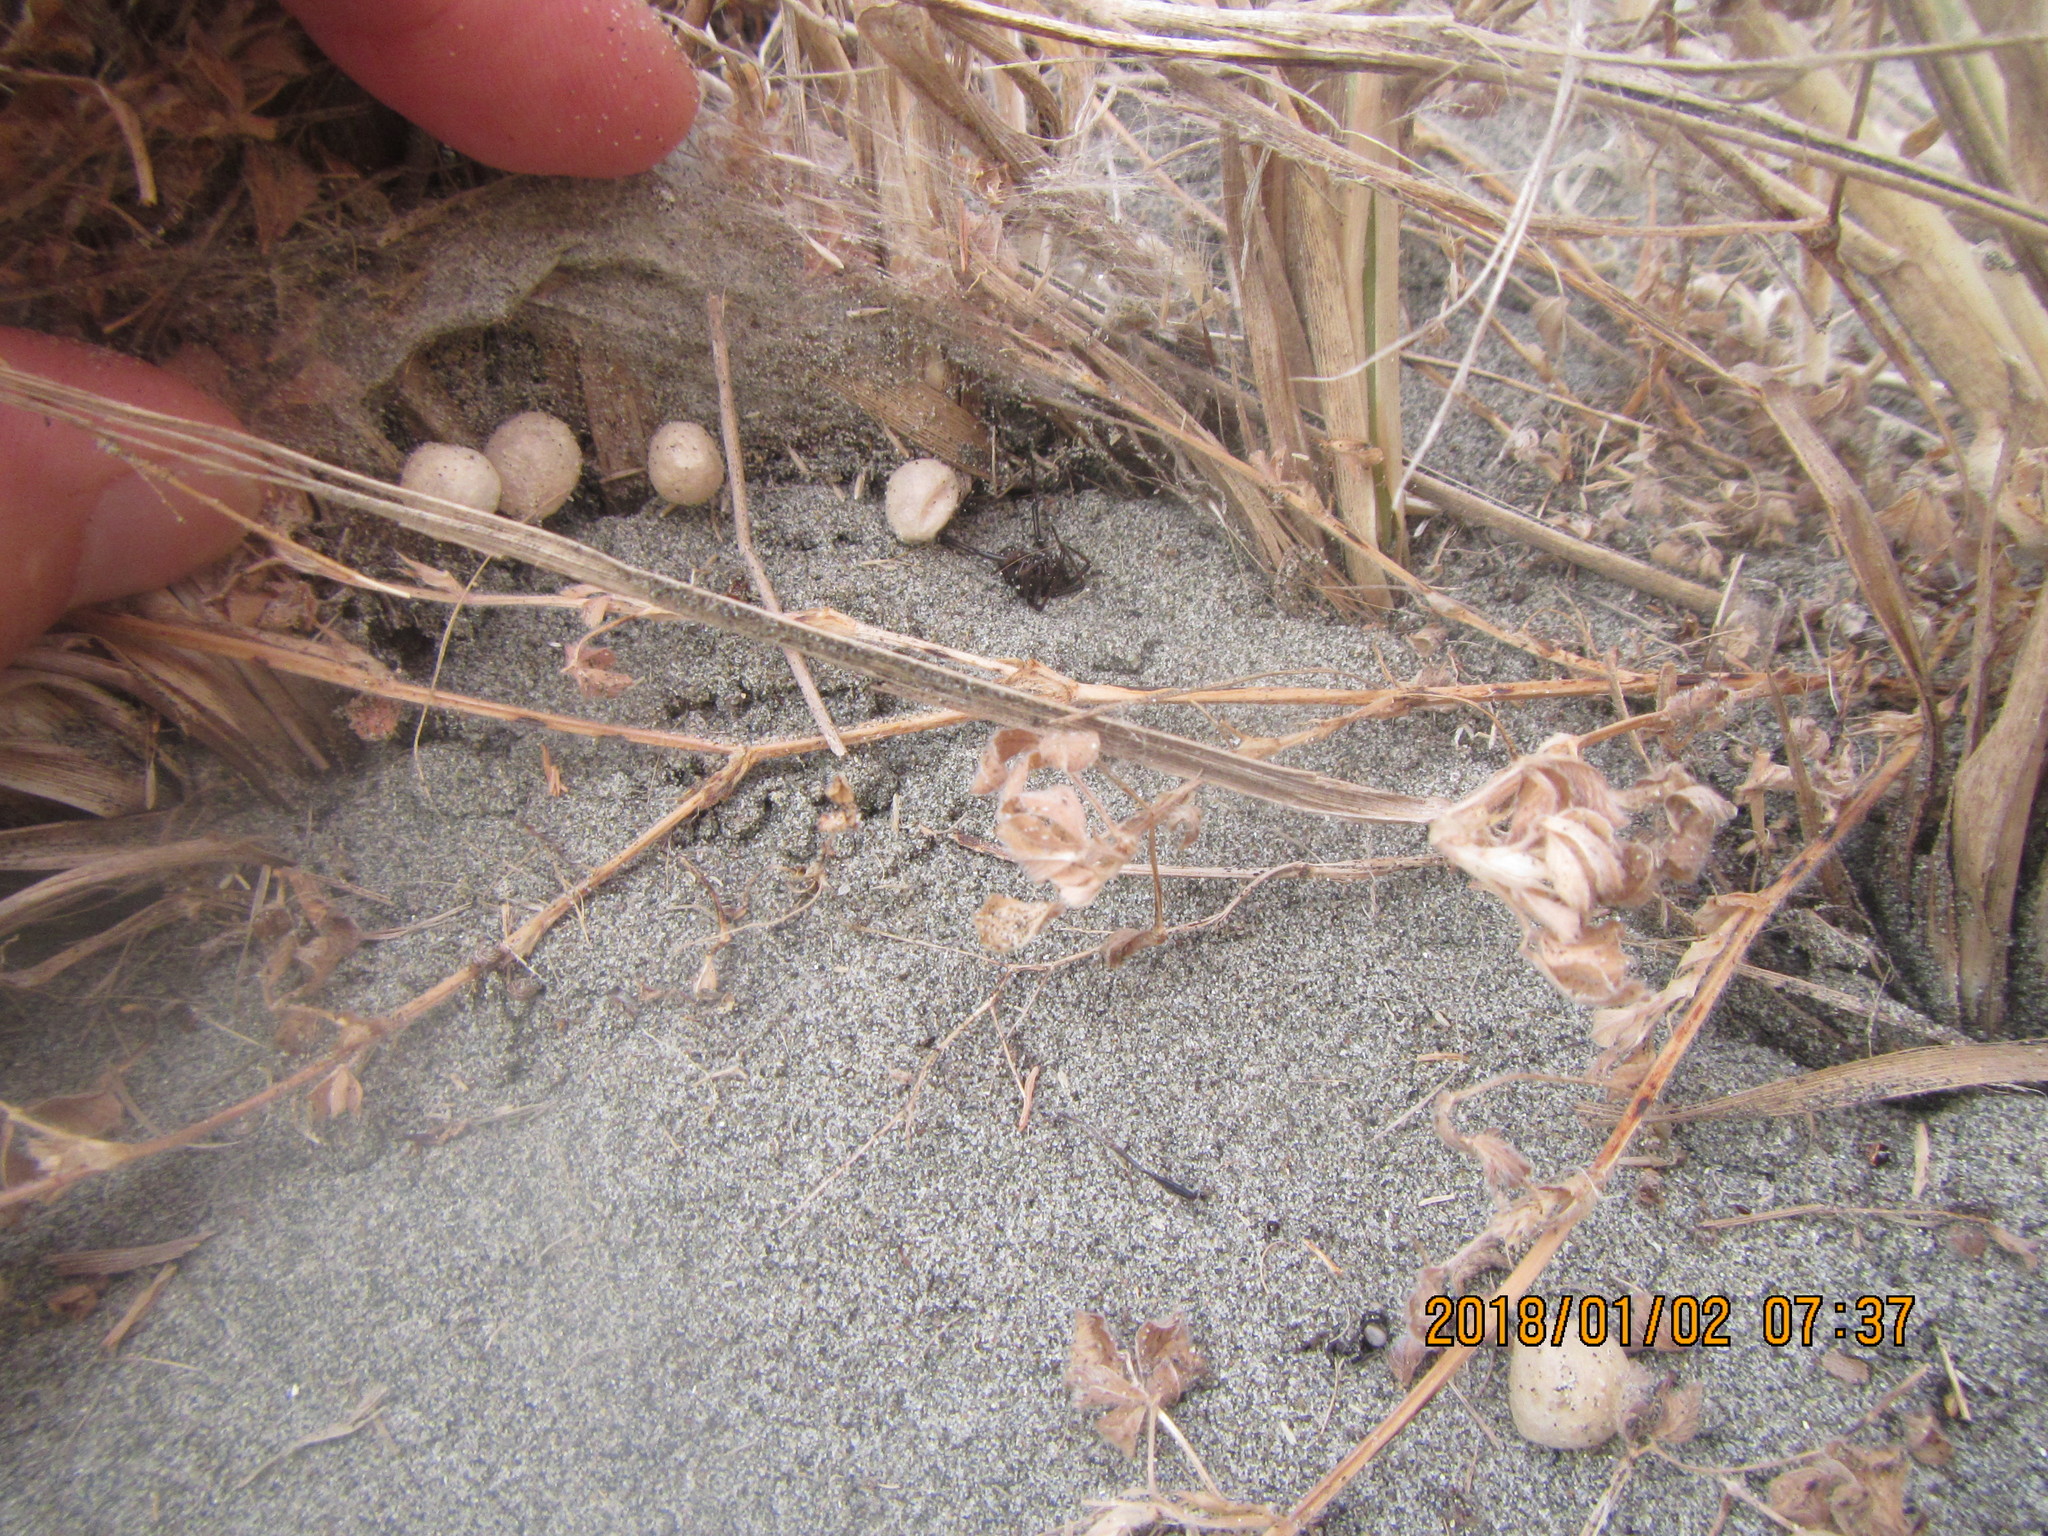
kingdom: Animalia
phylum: Arthropoda
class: Arachnida
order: Araneae
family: Theridiidae
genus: Latrodectus
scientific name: Latrodectus katipo
